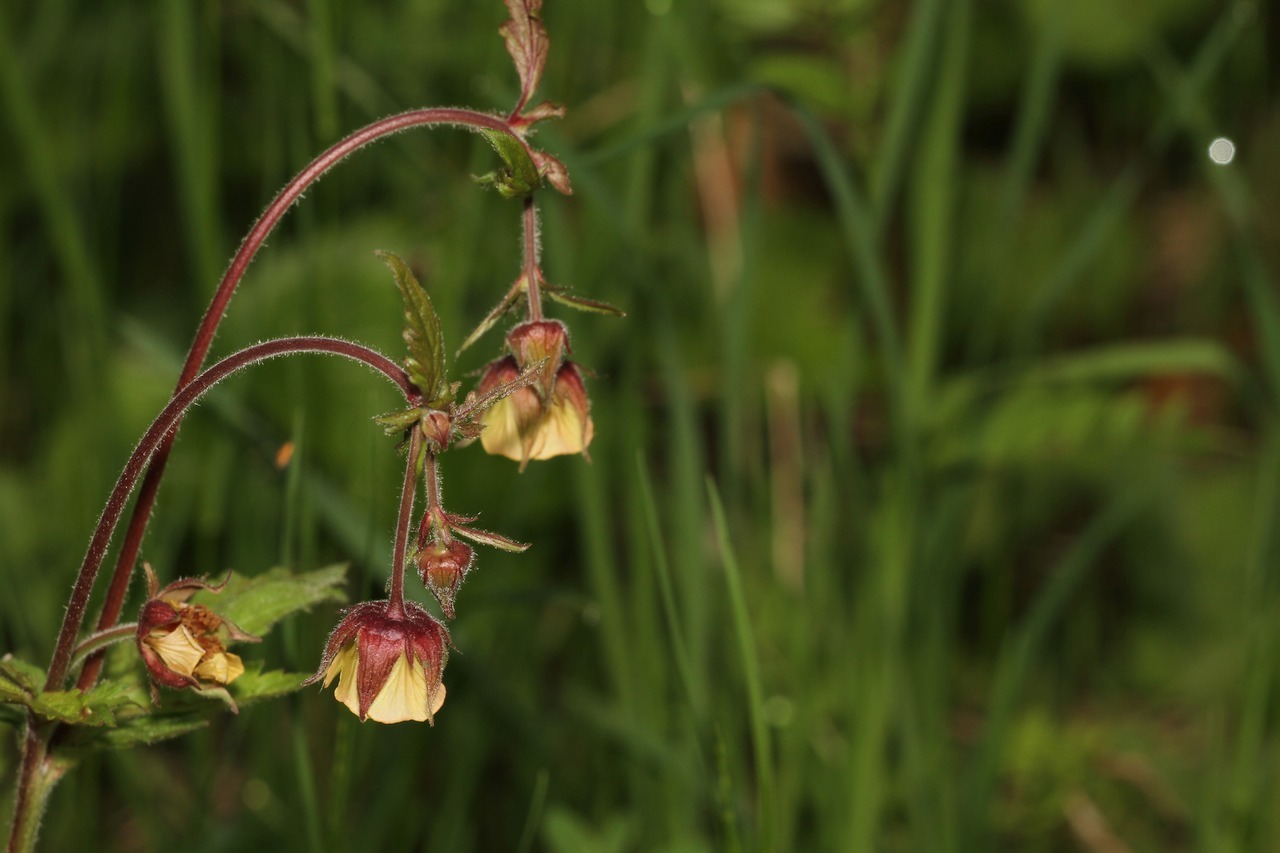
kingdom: Plantae
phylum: Tracheophyta
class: Magnoliopsida
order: Rosales
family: Rosaceae
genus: Geum
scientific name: Geum rivale
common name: Water avens
